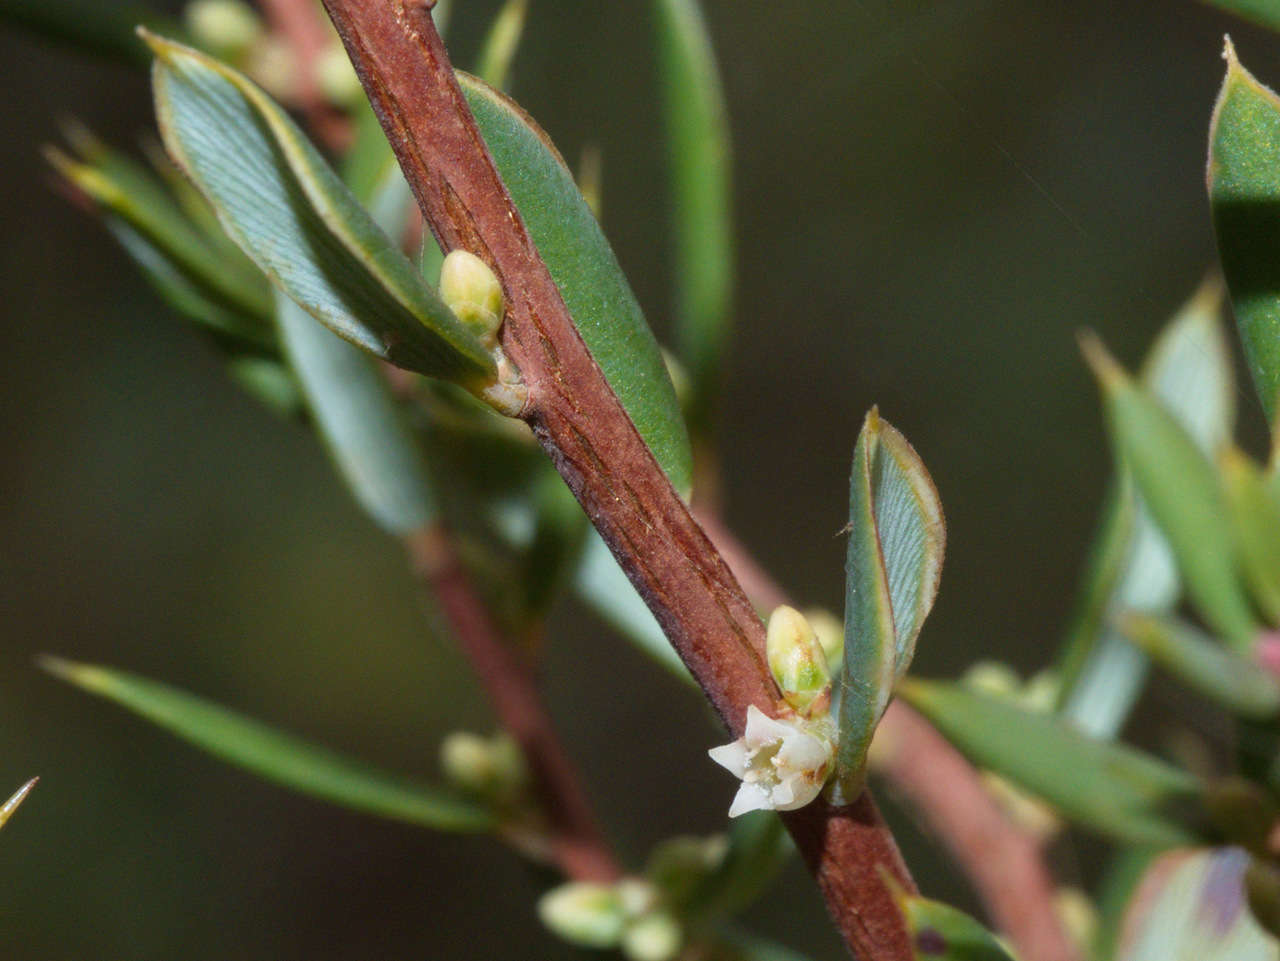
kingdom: Plantae
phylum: Tracheophyta
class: Magnoliopsida
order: Ericales
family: Ericaceae
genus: Monotoca
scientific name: Monotoca scoparia
